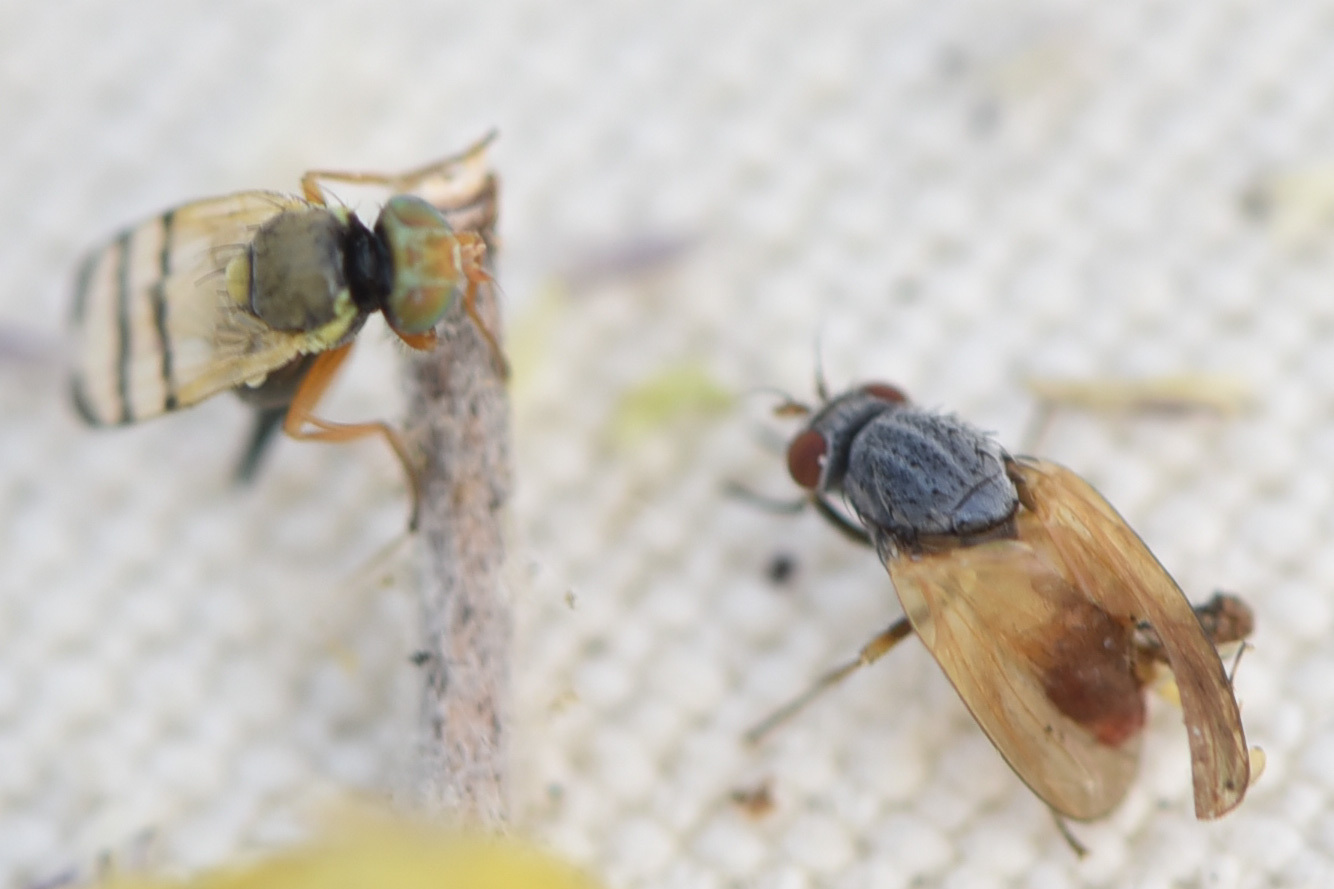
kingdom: Animalia
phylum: Arthropoda
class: Insecta
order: Diptera
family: Tephritidae
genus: Urophora
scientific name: Urophora affinis
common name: Fruit fly
